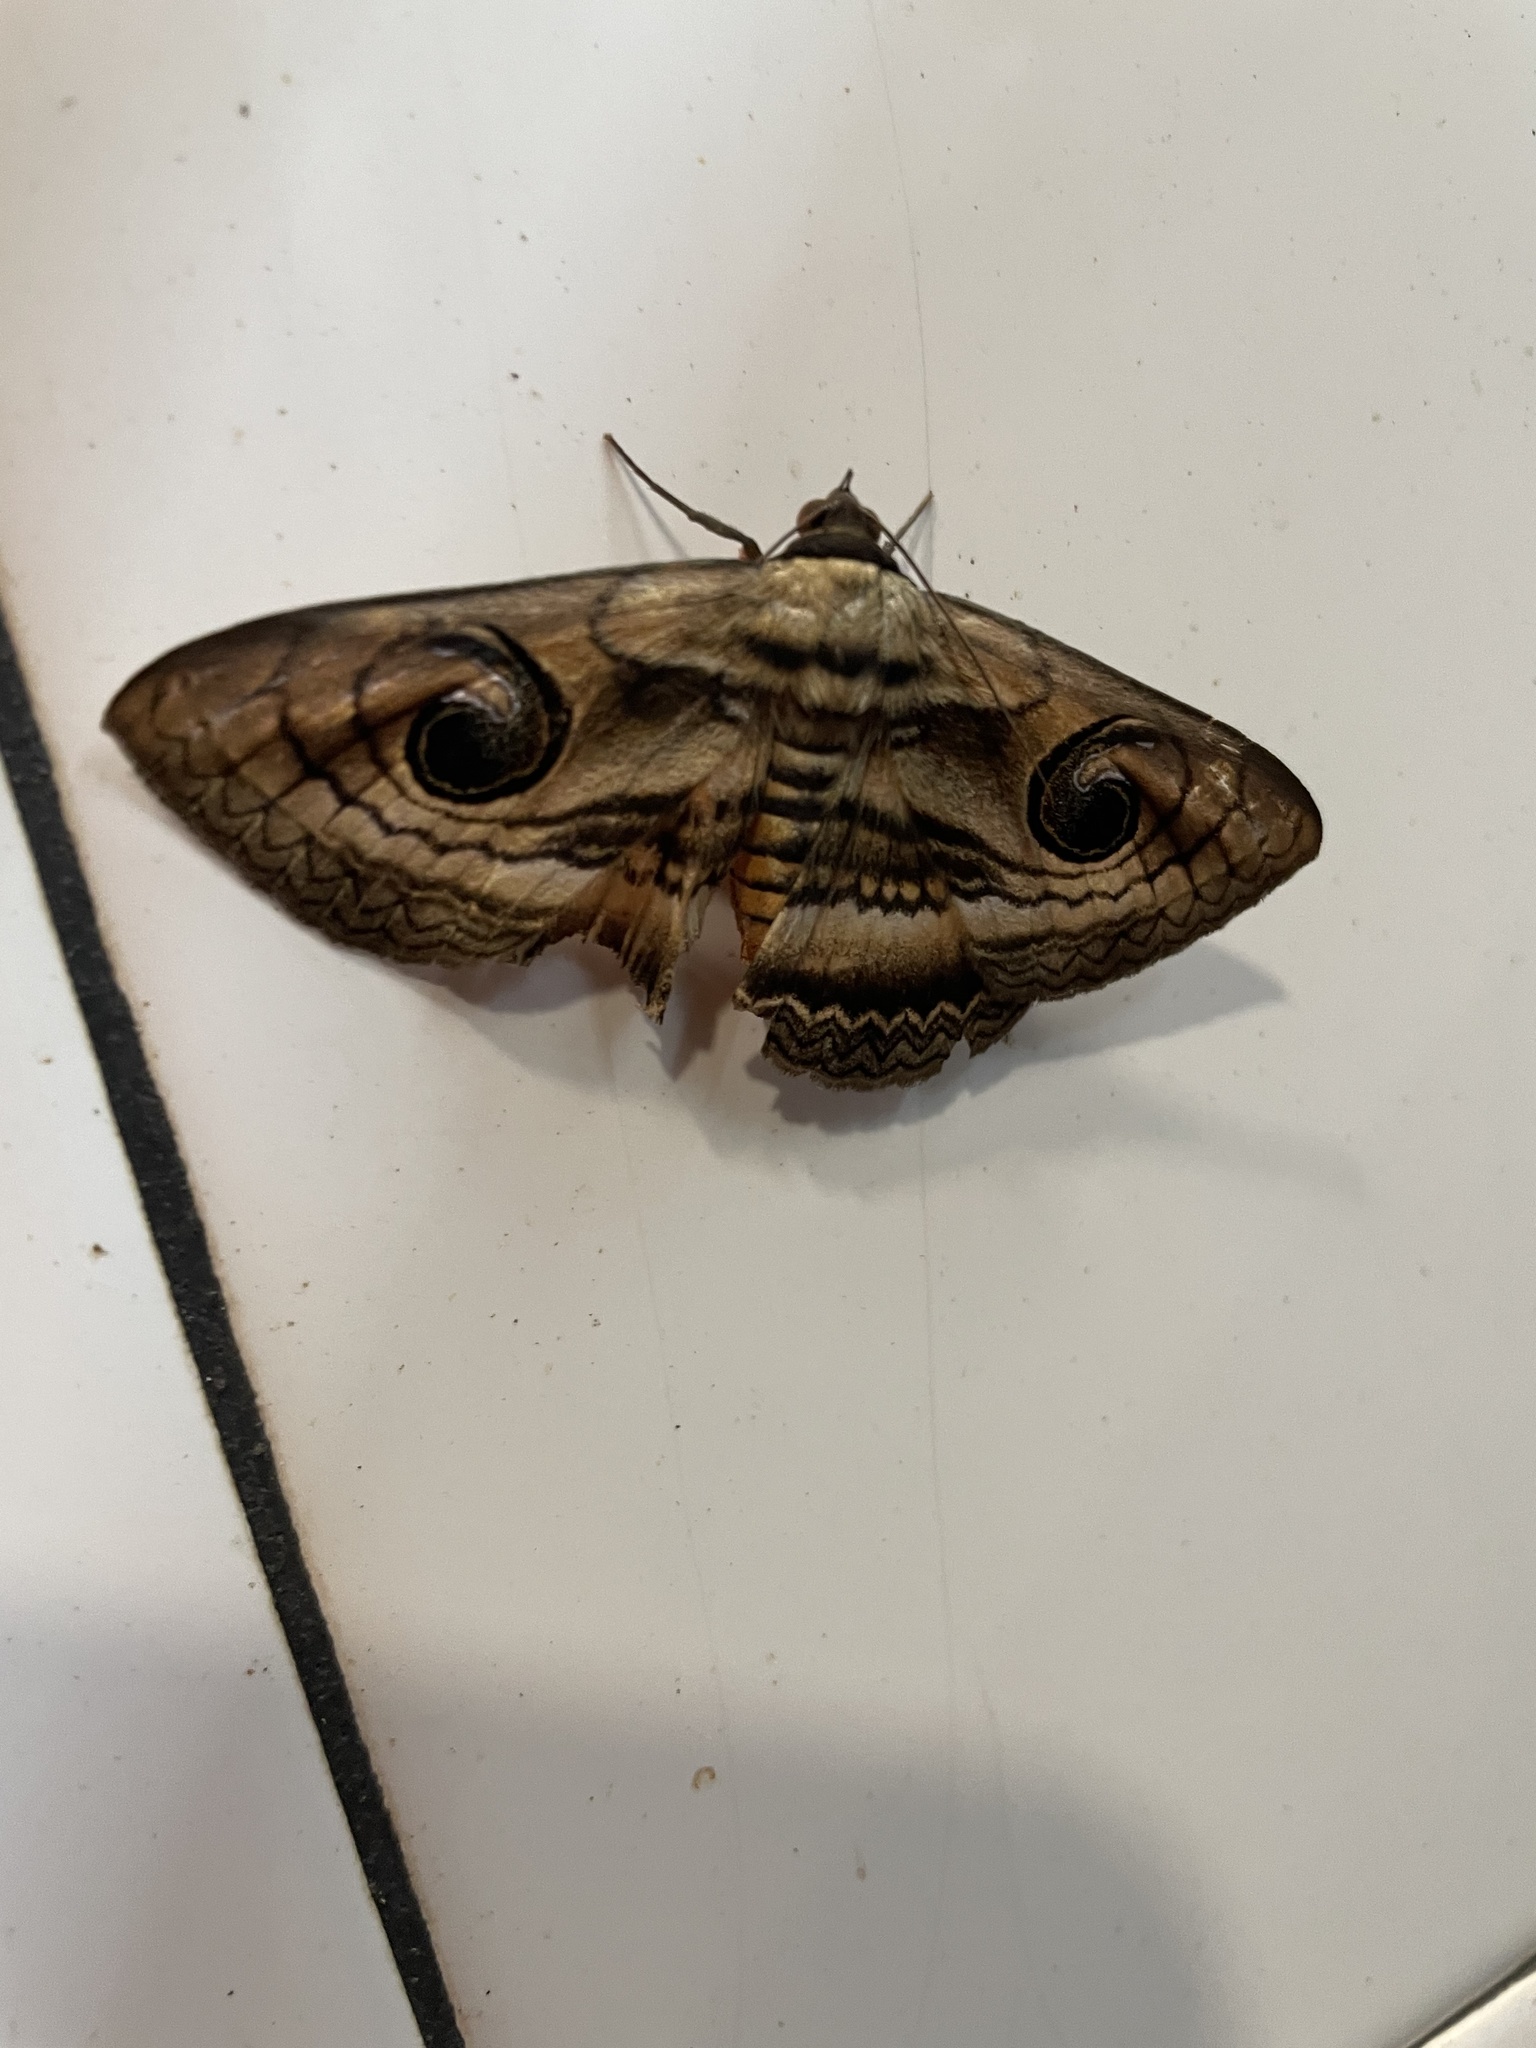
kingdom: Animalia
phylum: Arthropoda
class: Insecta
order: Lepidoptera
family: Erebidae
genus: Spirama
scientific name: Spirama recessa
